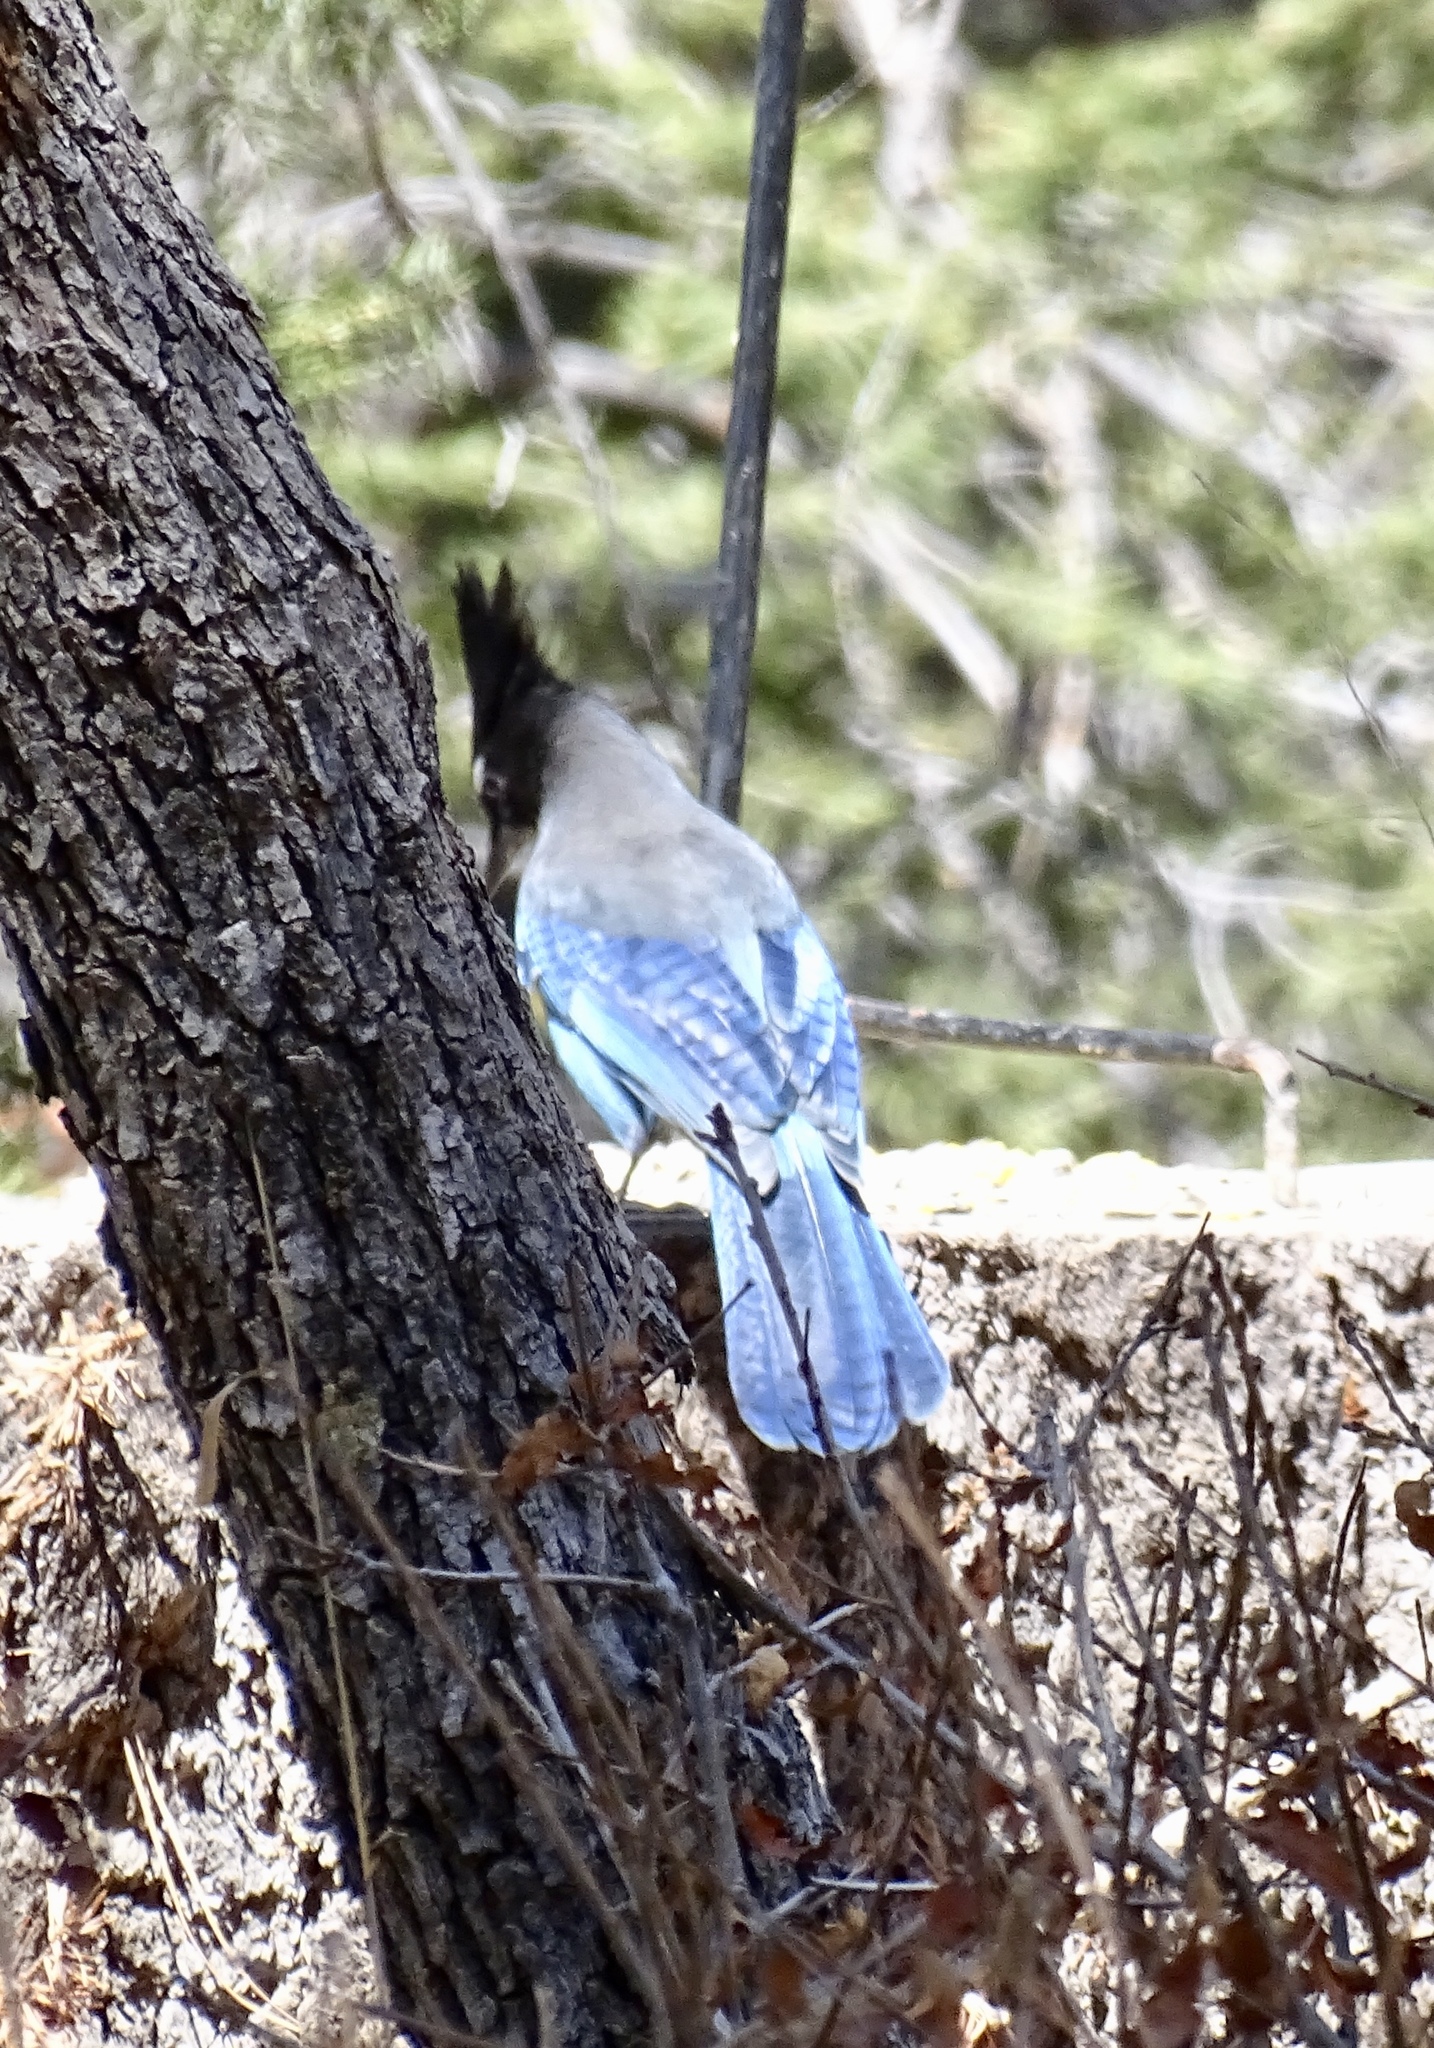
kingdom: Animalia
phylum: Chordata
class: Aves
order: Passeriformes
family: Corvidae
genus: Cyanocitta
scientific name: Cyanocitta stelleri
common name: Steller's jay
